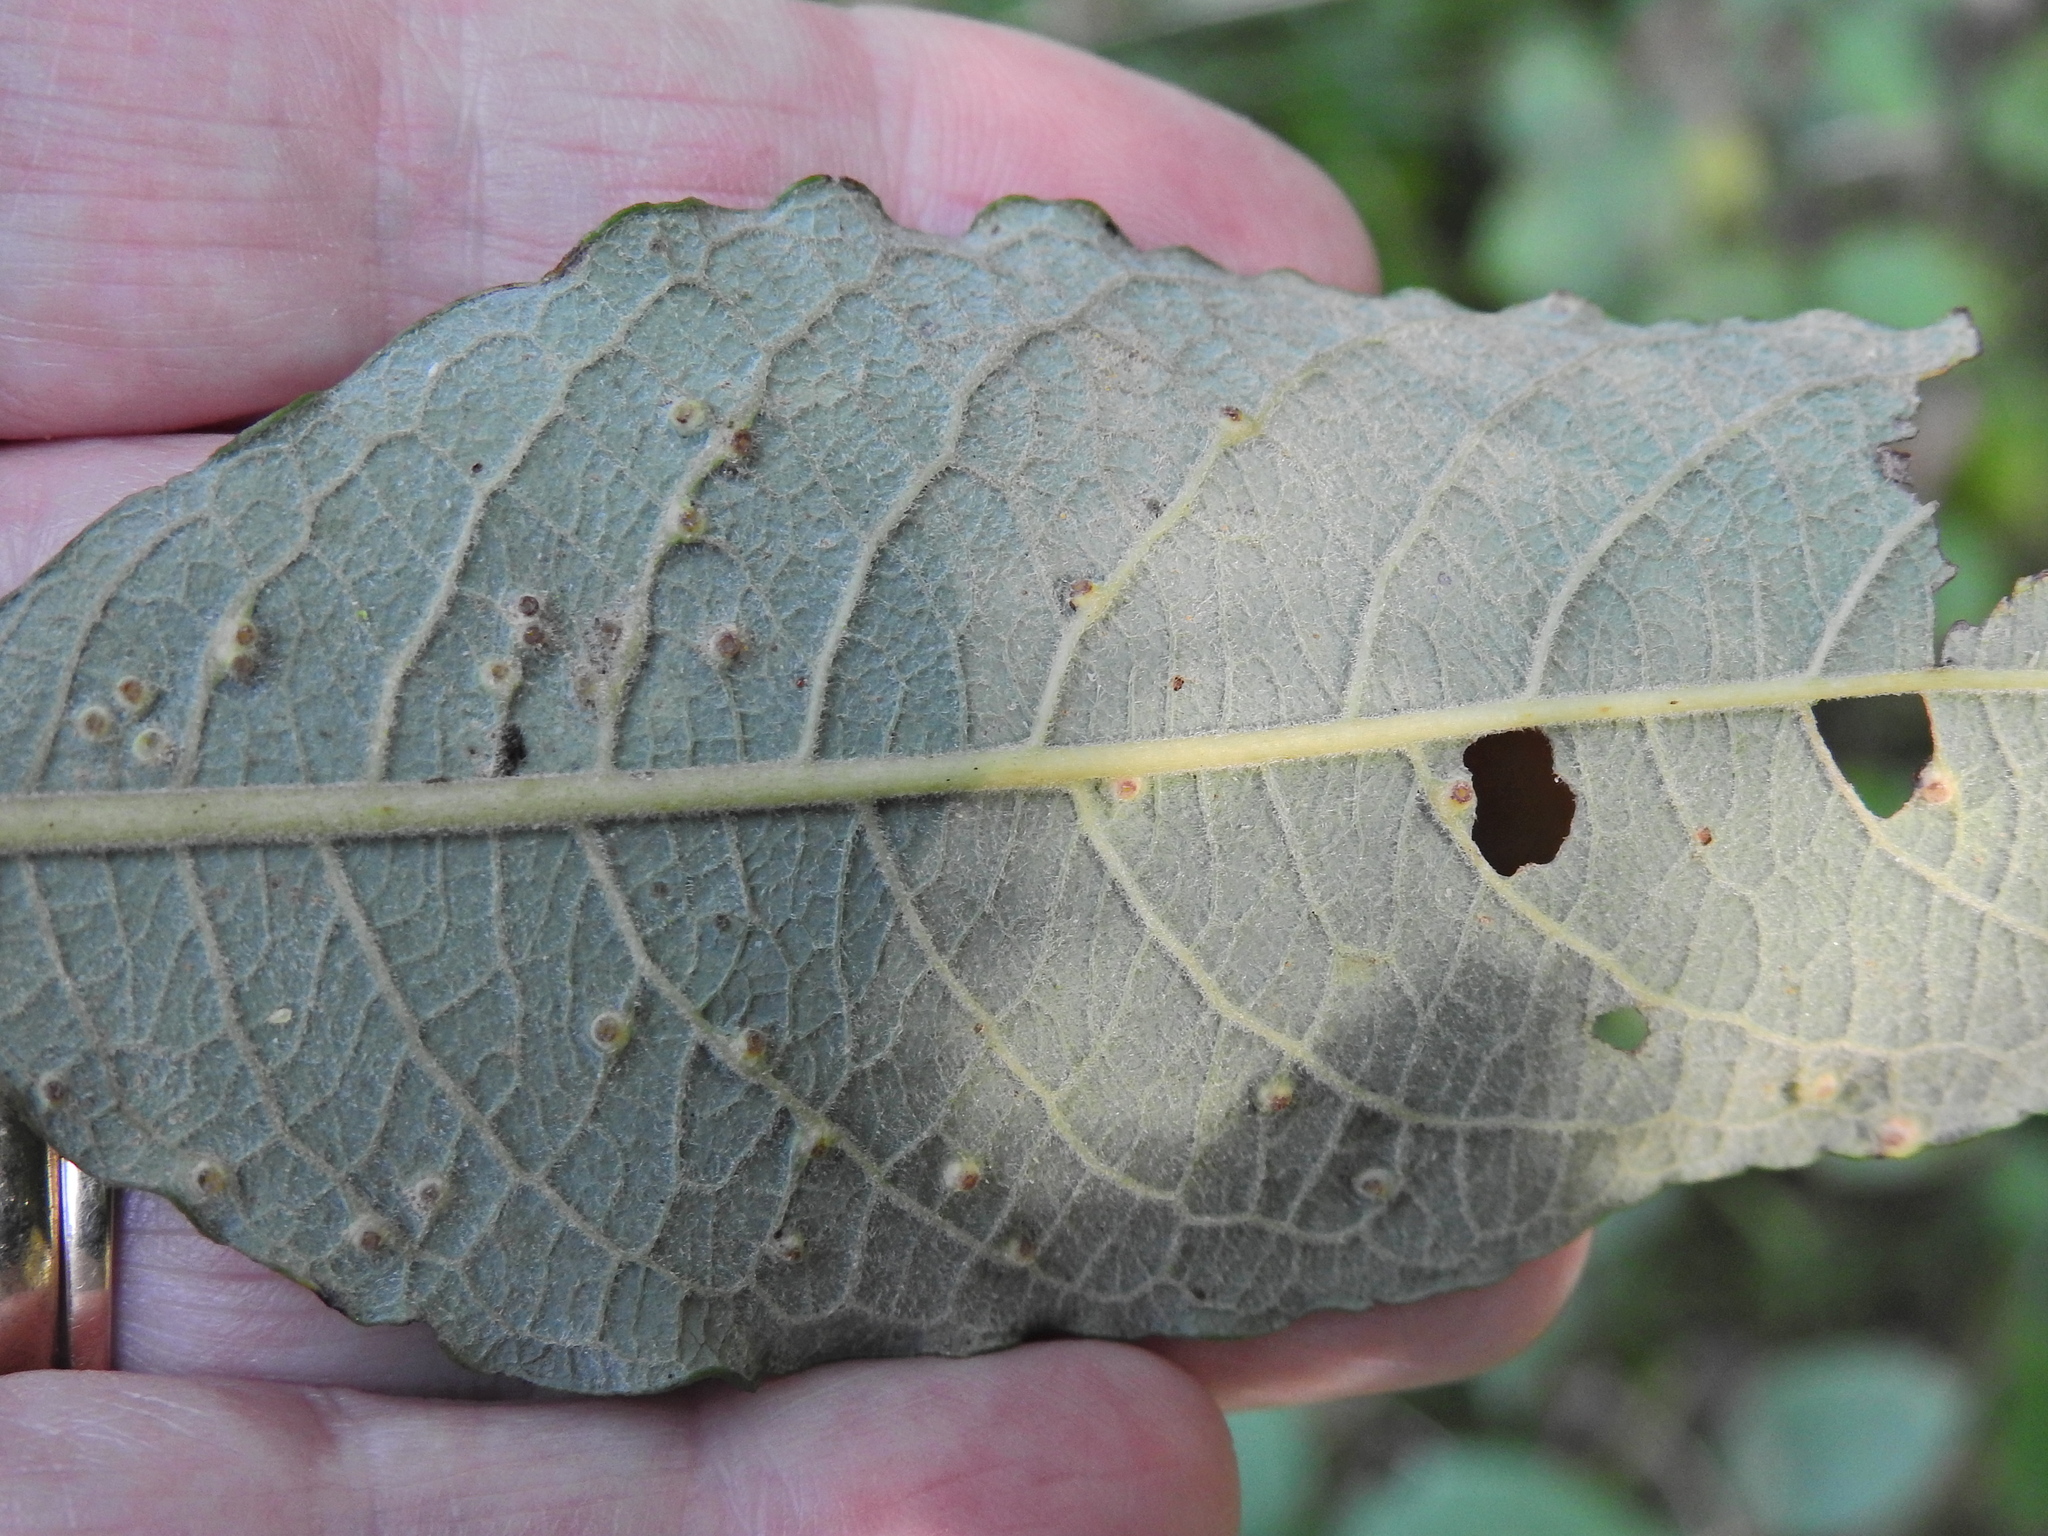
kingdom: Animalia
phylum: Arthropoda
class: Insecta
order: Diptera
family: Cecidomyiidae
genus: Iteomyia
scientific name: Iteomyia capreae
